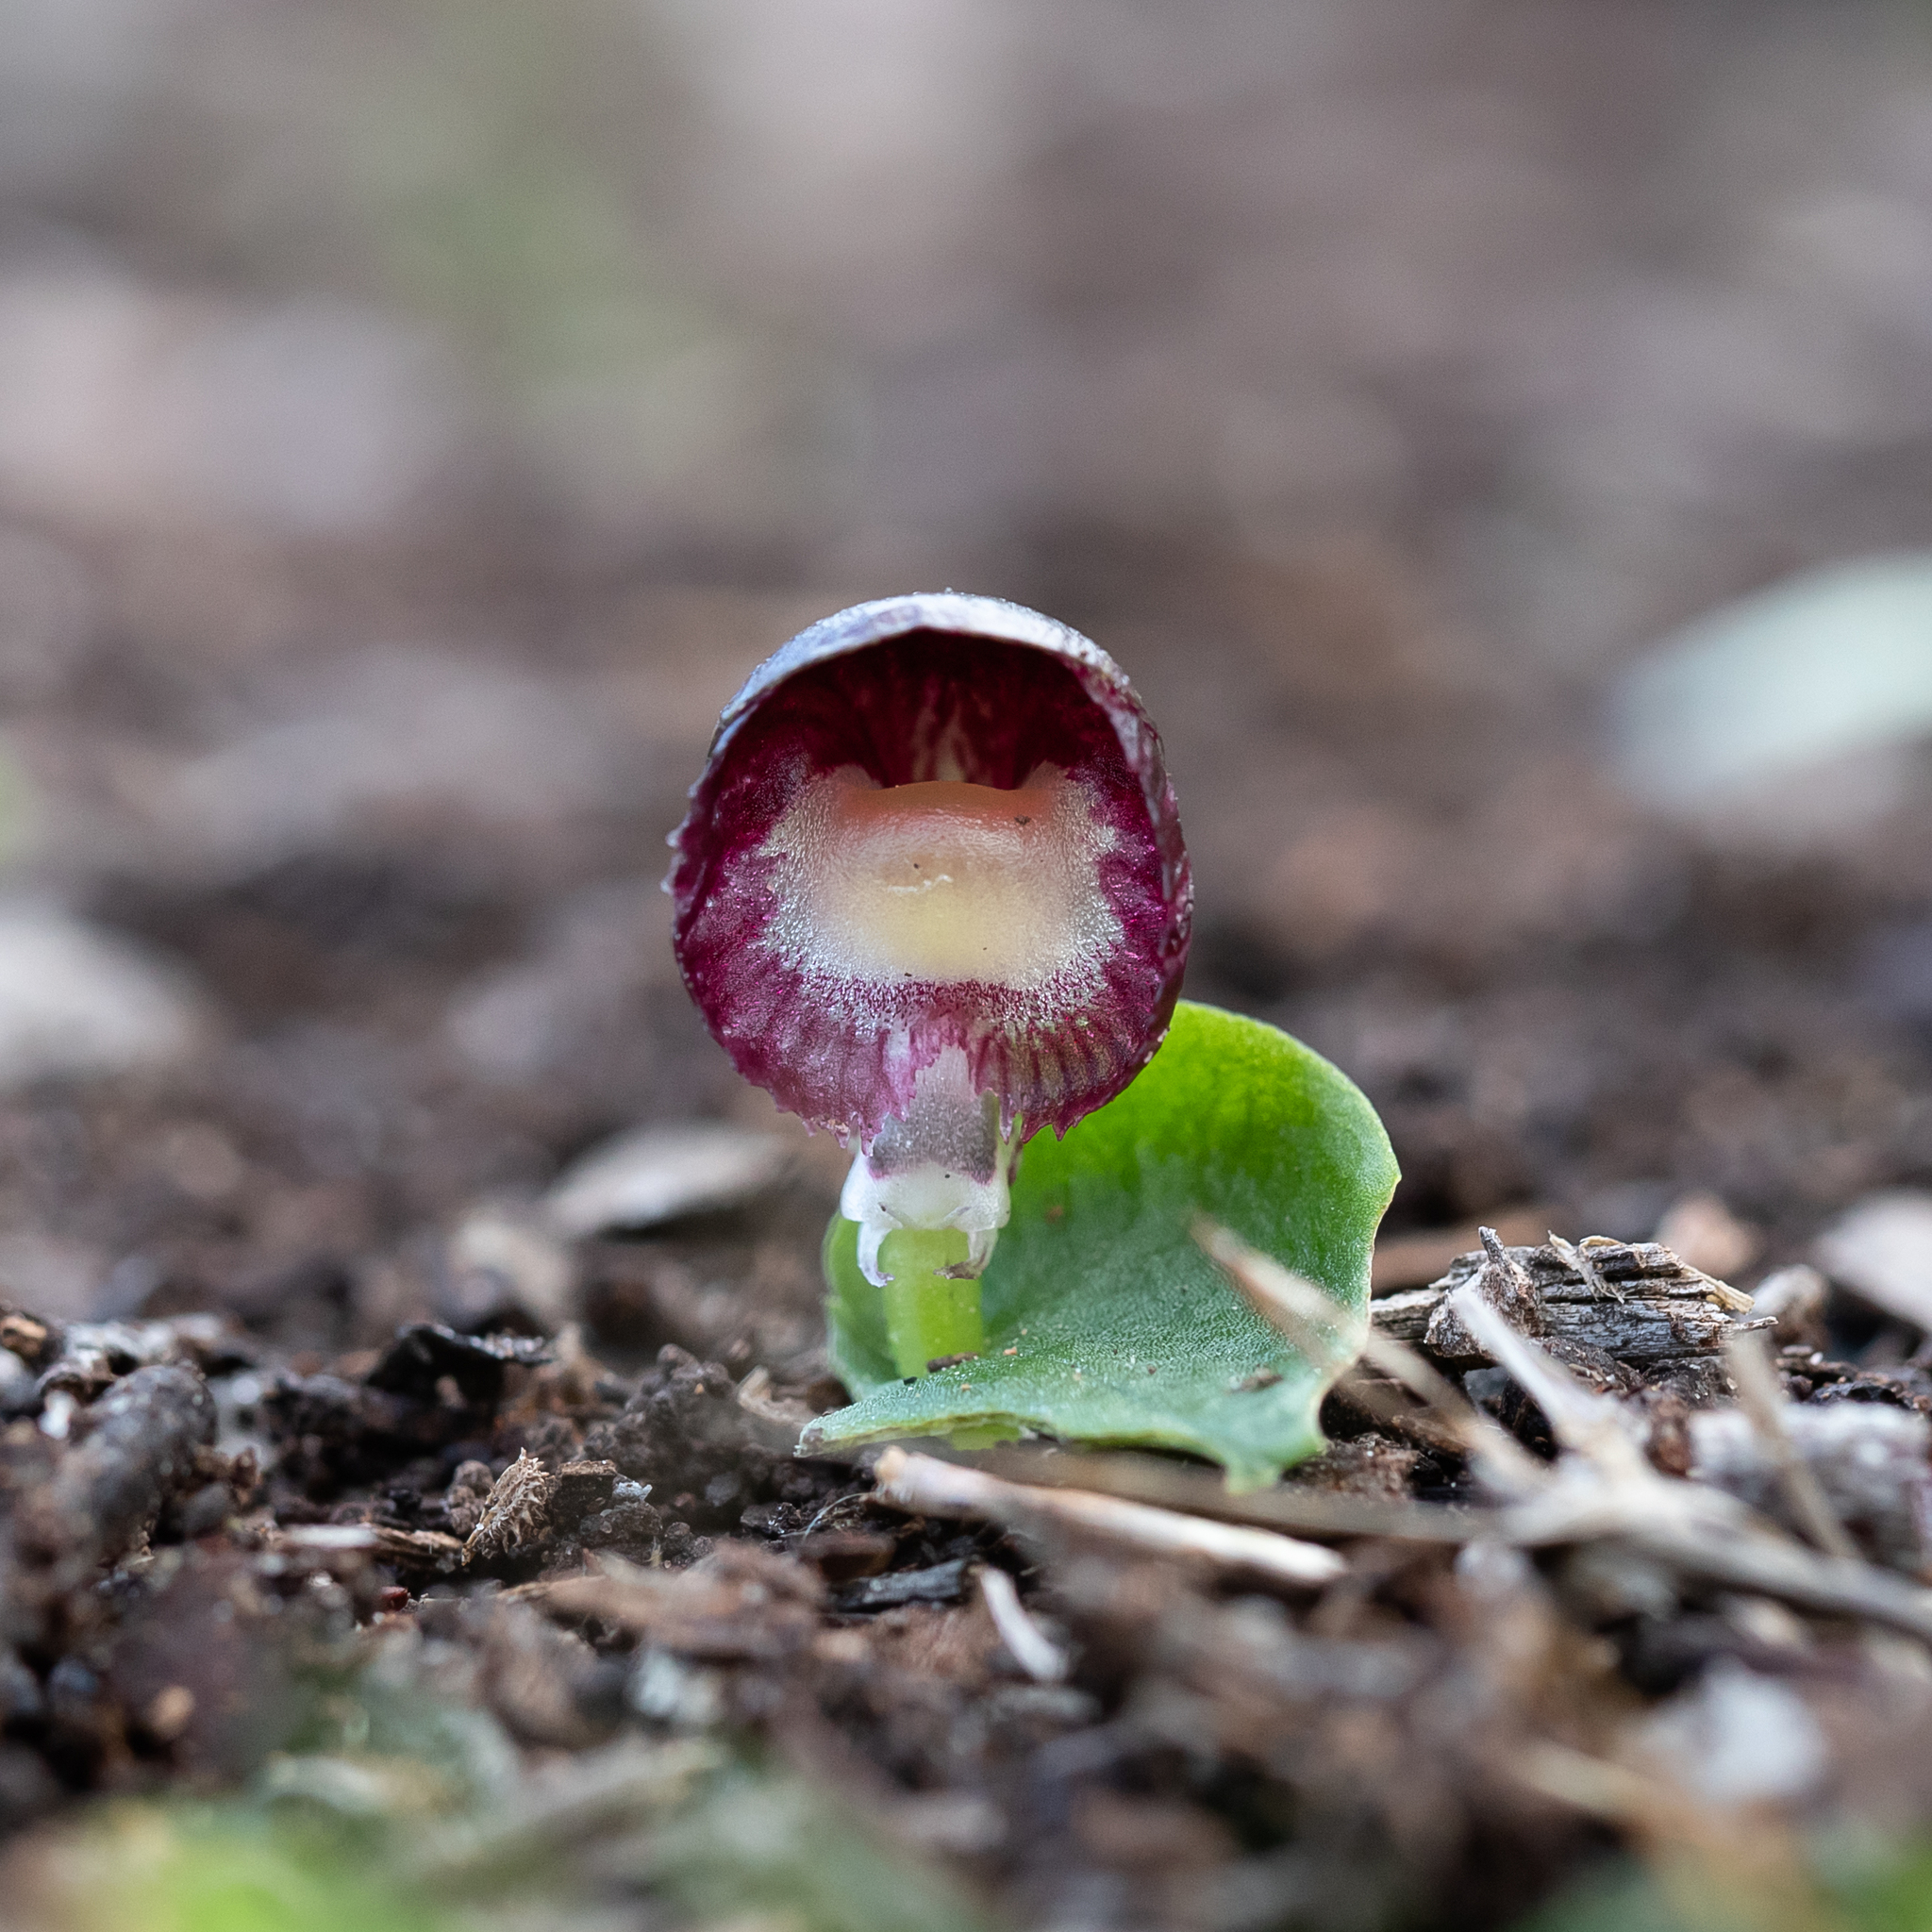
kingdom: Plantae
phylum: Tracheophyta
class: Liliopsida
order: Asparagales
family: Orchidaceae
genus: Corybas
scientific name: Corybas diemenicus
